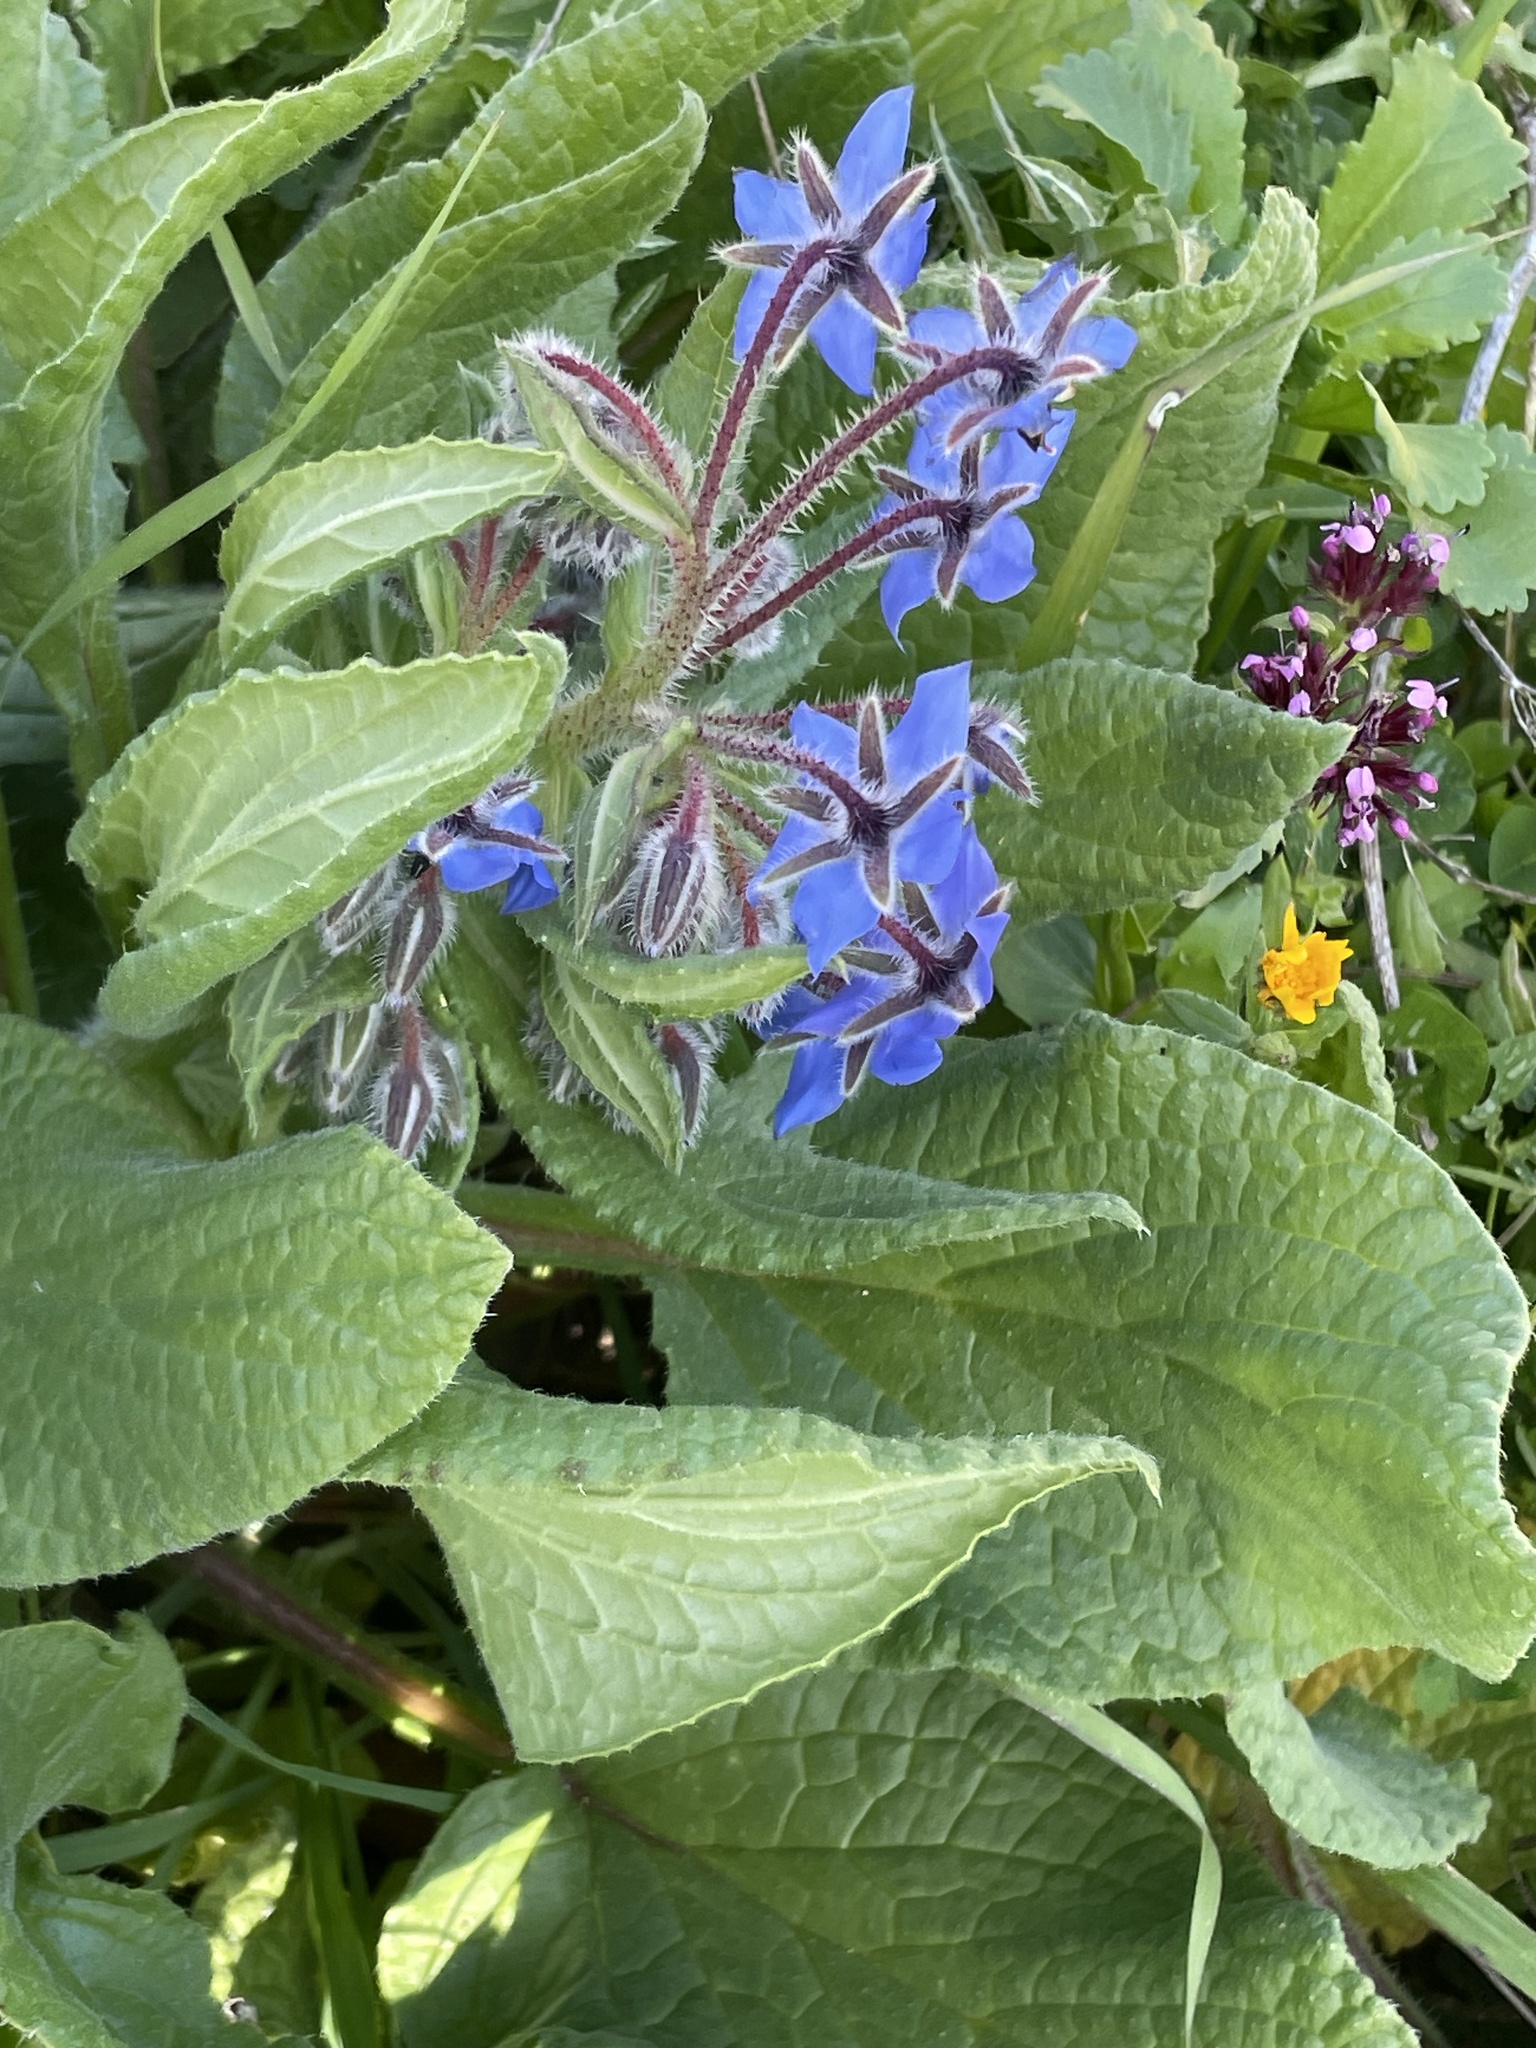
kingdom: Plantae
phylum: Tracheophyta
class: Magnoliopsida
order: Boraginales
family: Boraginaceae
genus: Borago
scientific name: Borago officinalis
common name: Borage
